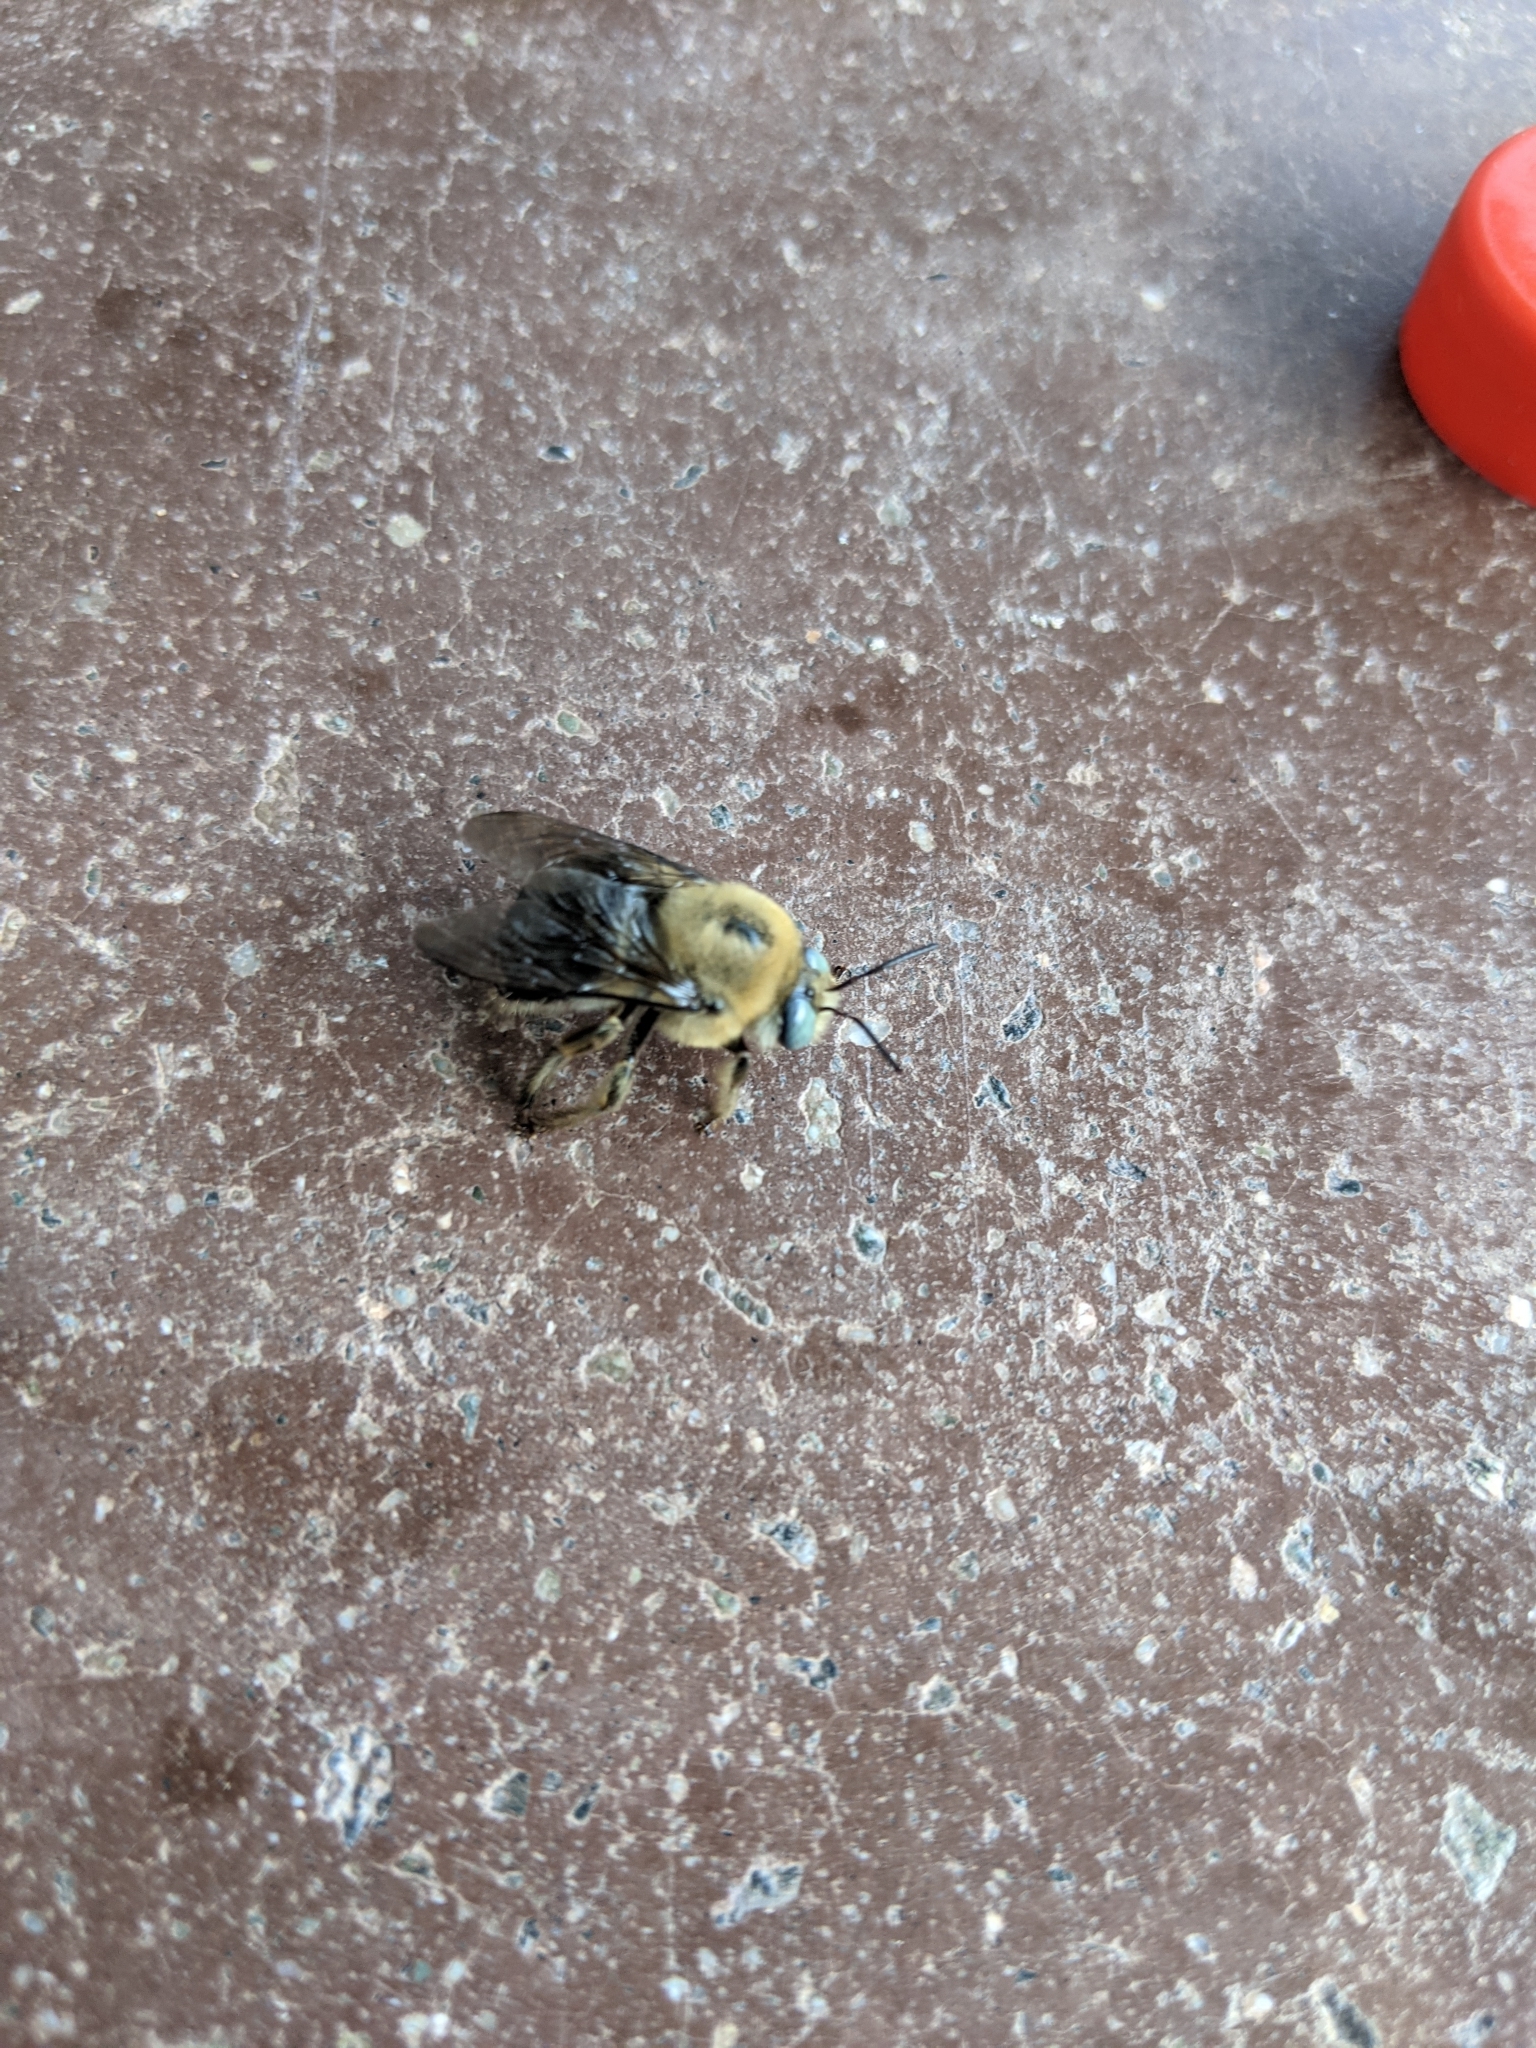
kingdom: Animalia
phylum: Arthropoda
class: Insecta
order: Hymenoptera
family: Apidae
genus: Xylocopa
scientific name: Xylocopa tabaniformis
